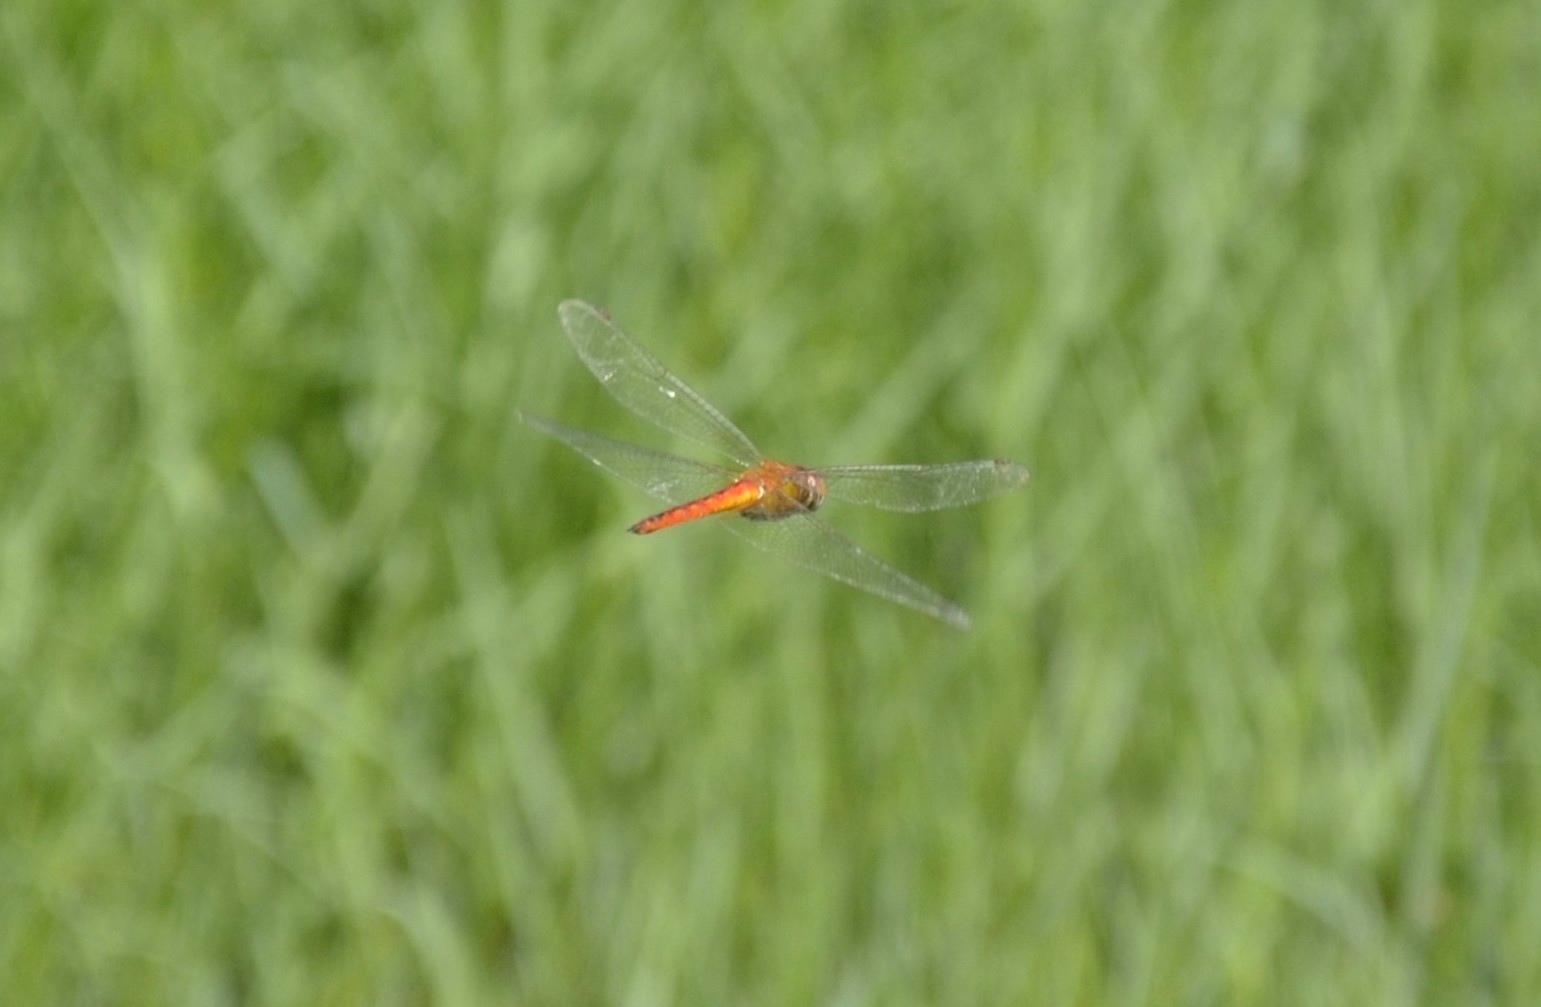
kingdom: Animalia
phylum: Arthropoda
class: Insecta
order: Odonata
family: Libellulidae
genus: Pantala
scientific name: Pantala flavescens
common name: Wandering glider
